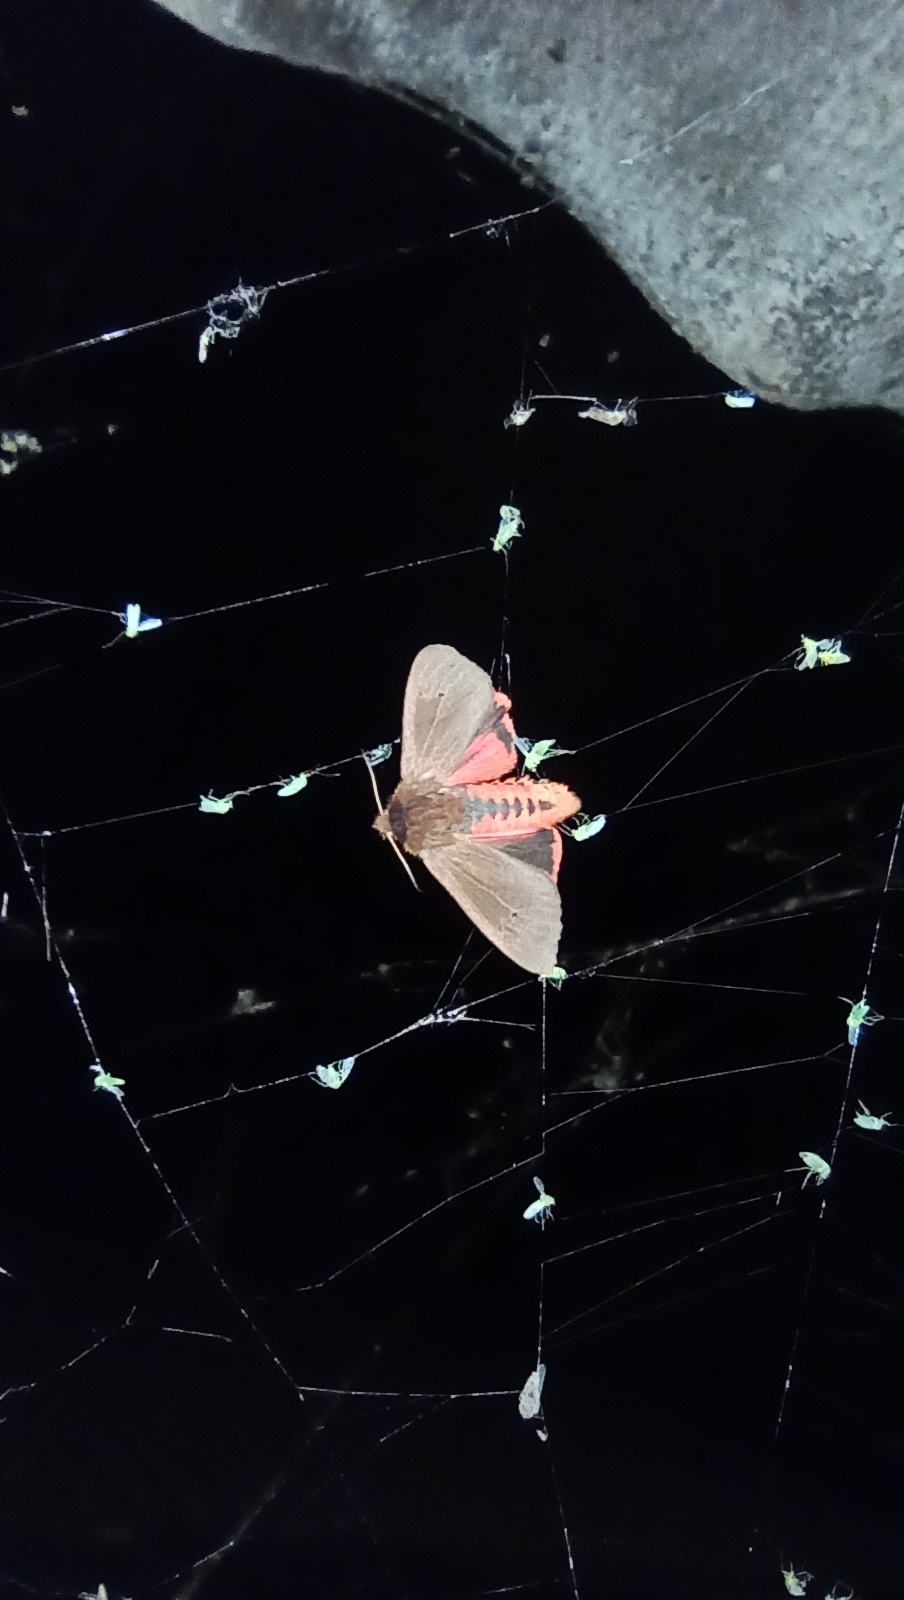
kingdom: Animalia
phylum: Arthropoda
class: Insecta
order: Lepidoptera
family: Erebidae
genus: Phragmatobia
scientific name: Phragmatobia fuliginosa
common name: Ruby tiger
